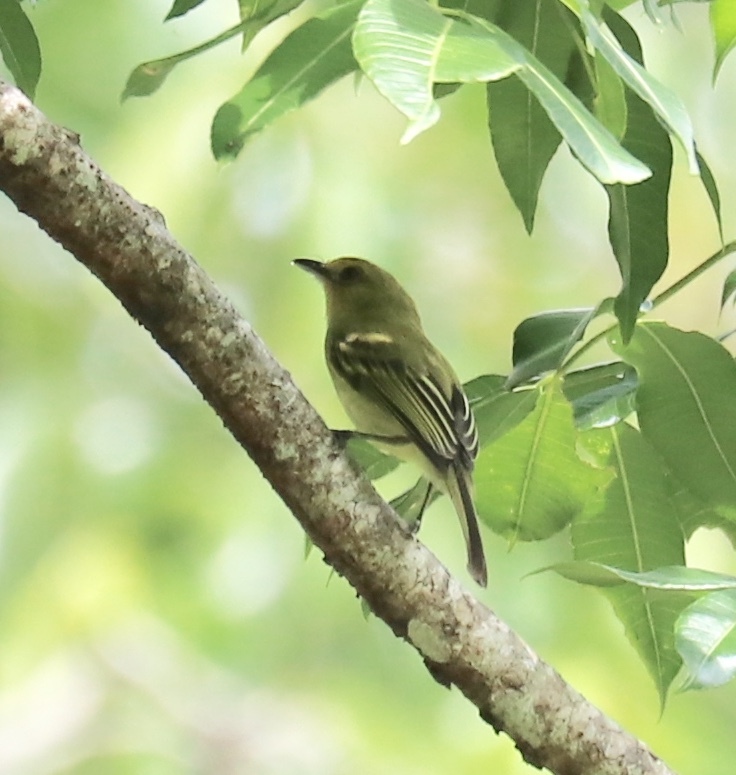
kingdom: Animalia
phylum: Chordata
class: Aves
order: Passeriformes
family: Tyrannidae
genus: Tolmomyias
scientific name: Tolmomyias flaviventris
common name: Ochre-lored flatbill
